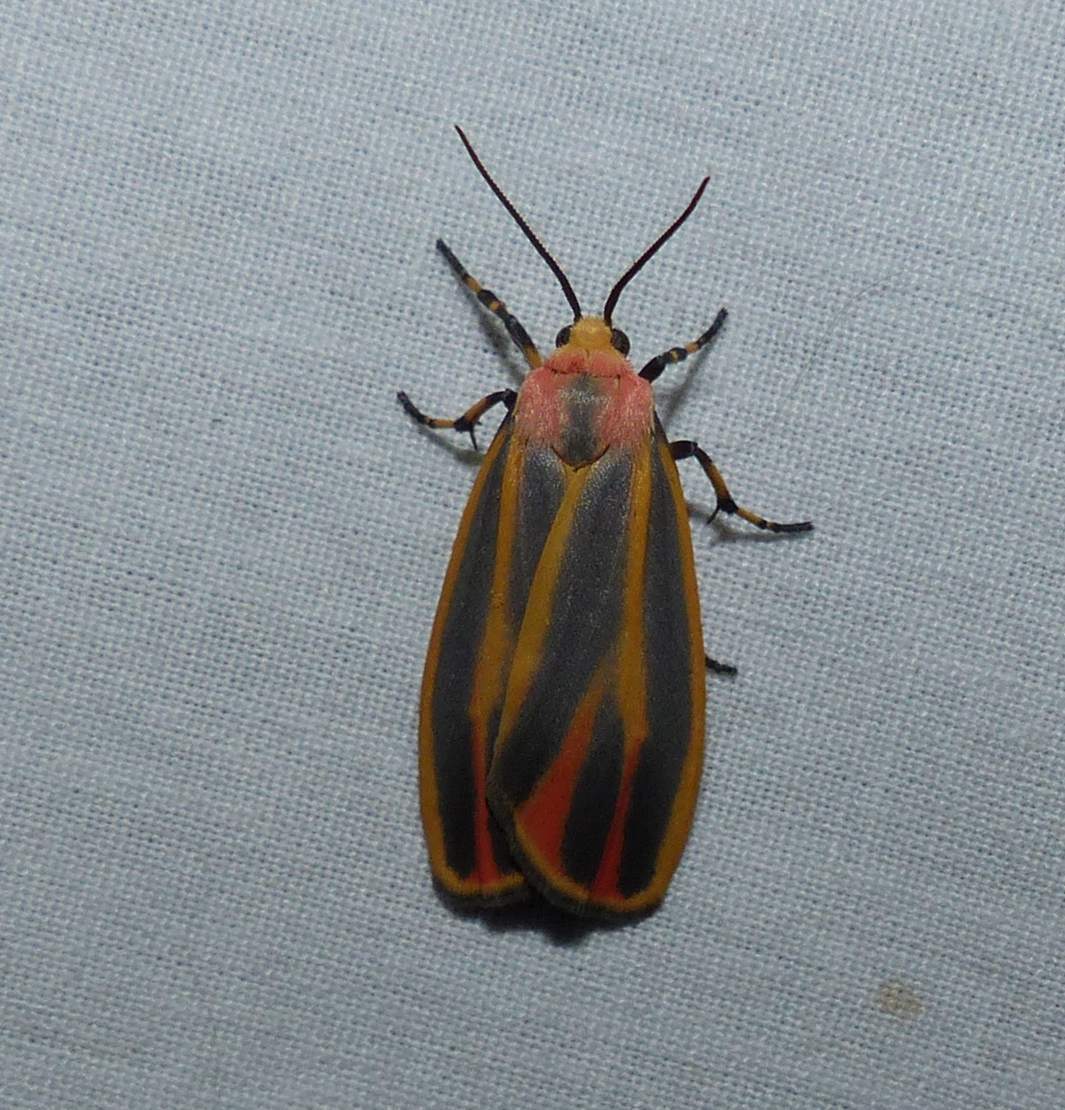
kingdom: Animalia
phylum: Arthropoda
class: Insecta
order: Lepidoptera
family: Erebidae
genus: Hypoprepia
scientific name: Hypoprepia fucosa
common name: Painted lichen moth
